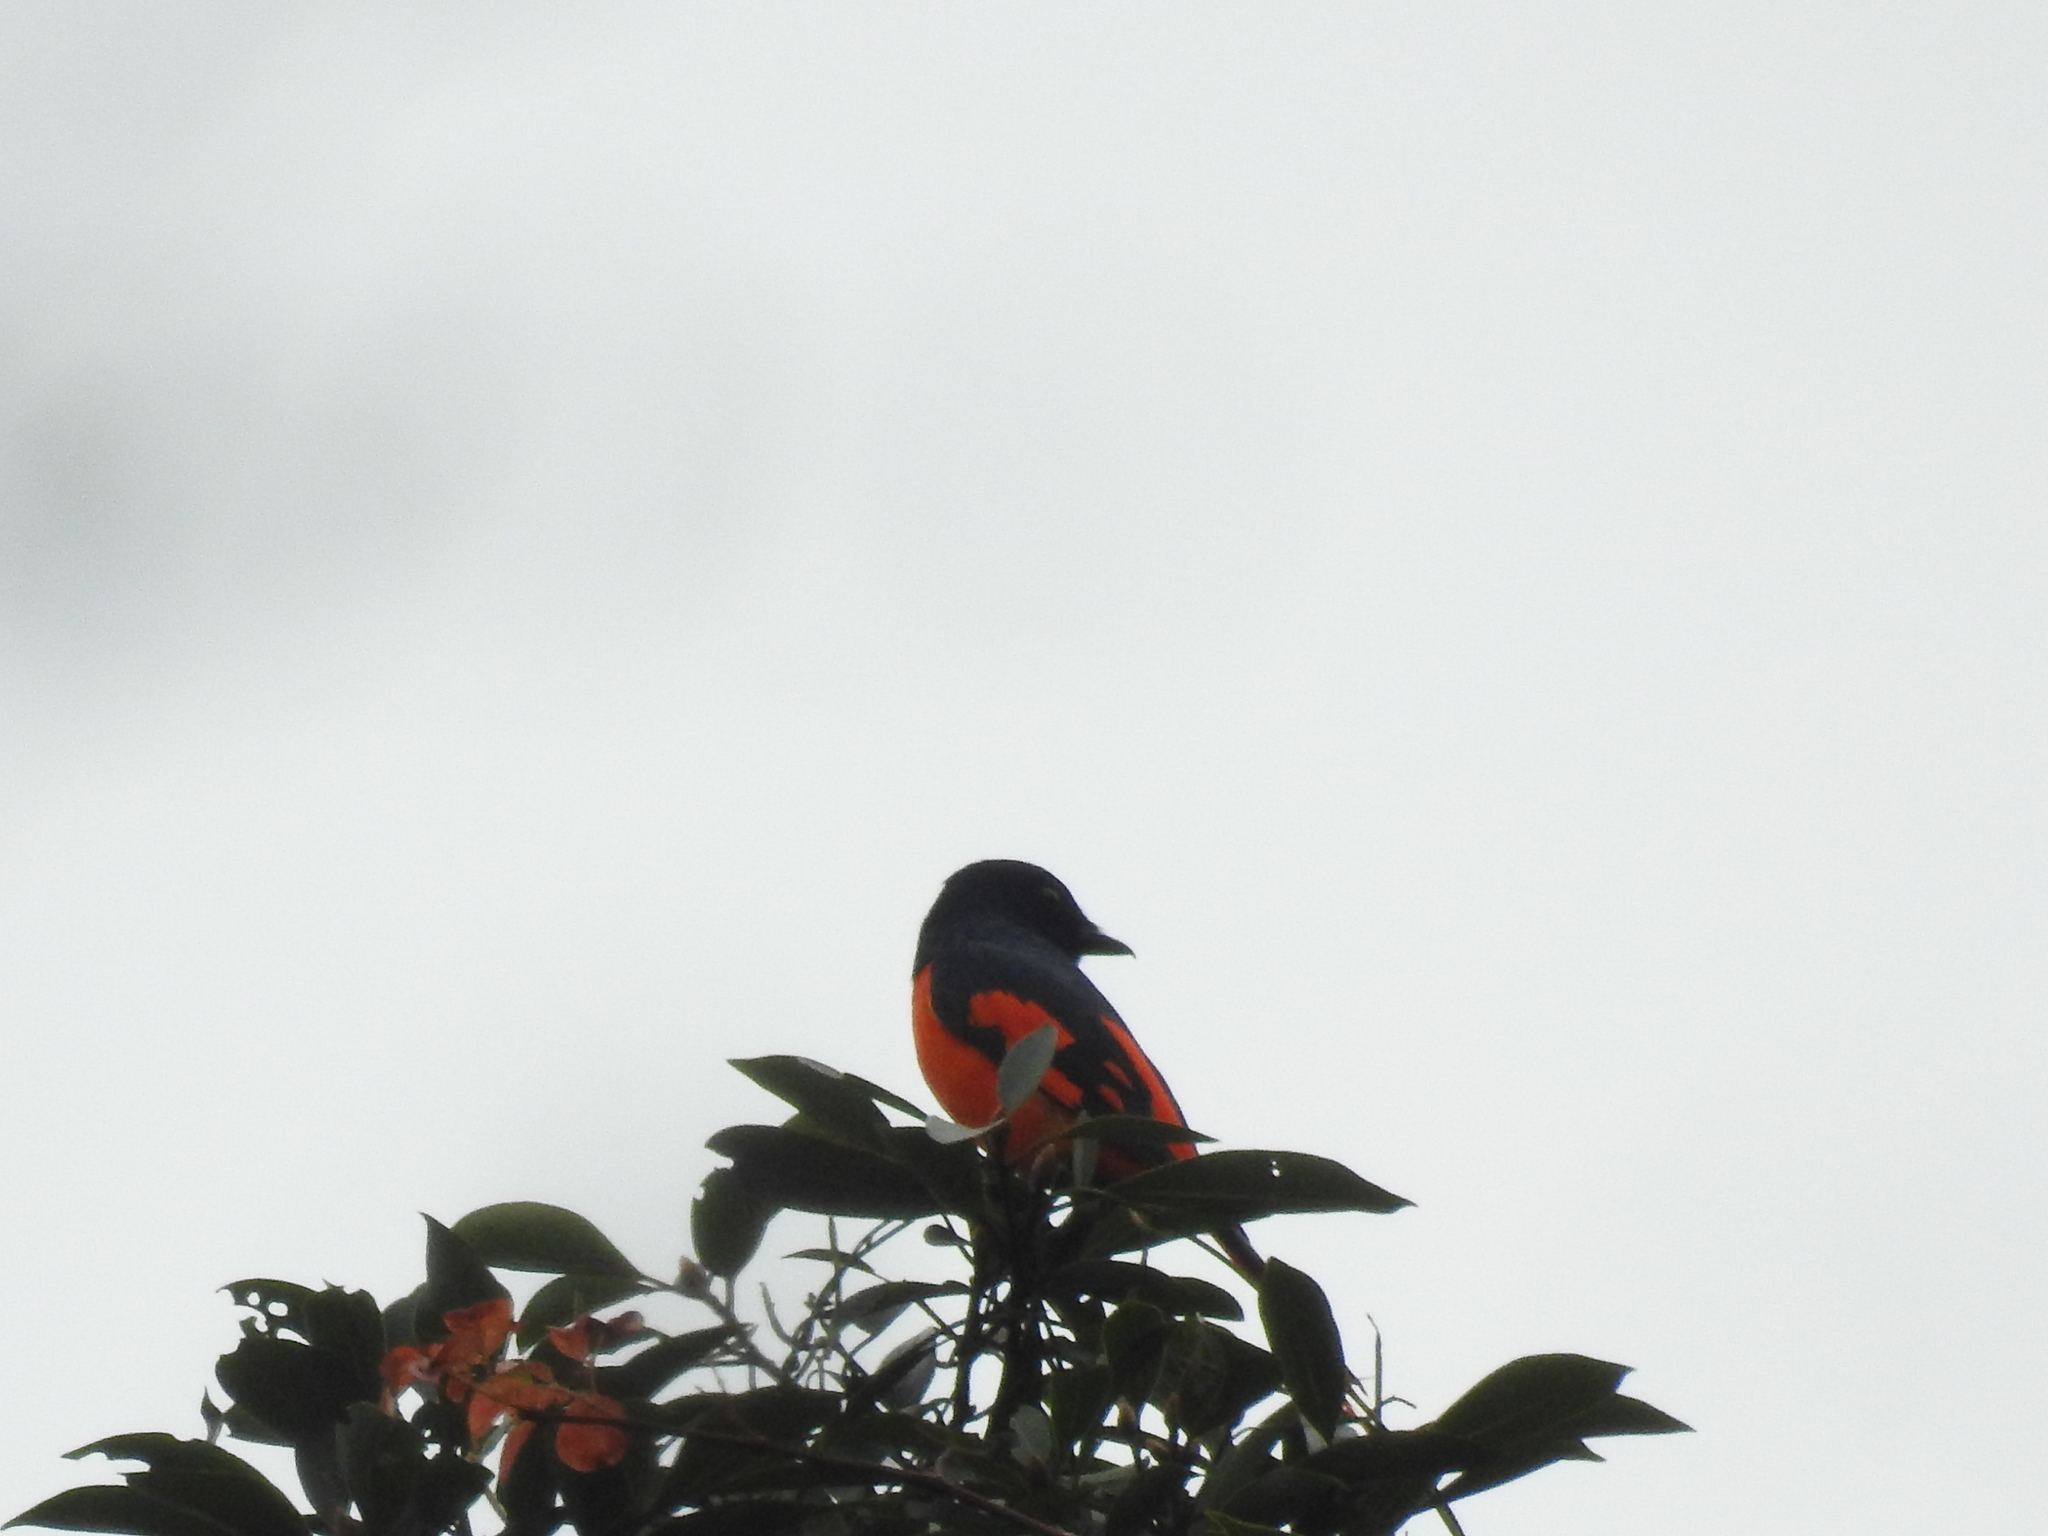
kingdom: Animalia
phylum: Chordata
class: Aves
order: Passeriformes
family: Campephagidae
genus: Pericrocotus
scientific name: Pericrocotus speciosus
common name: Scarlet minivet
